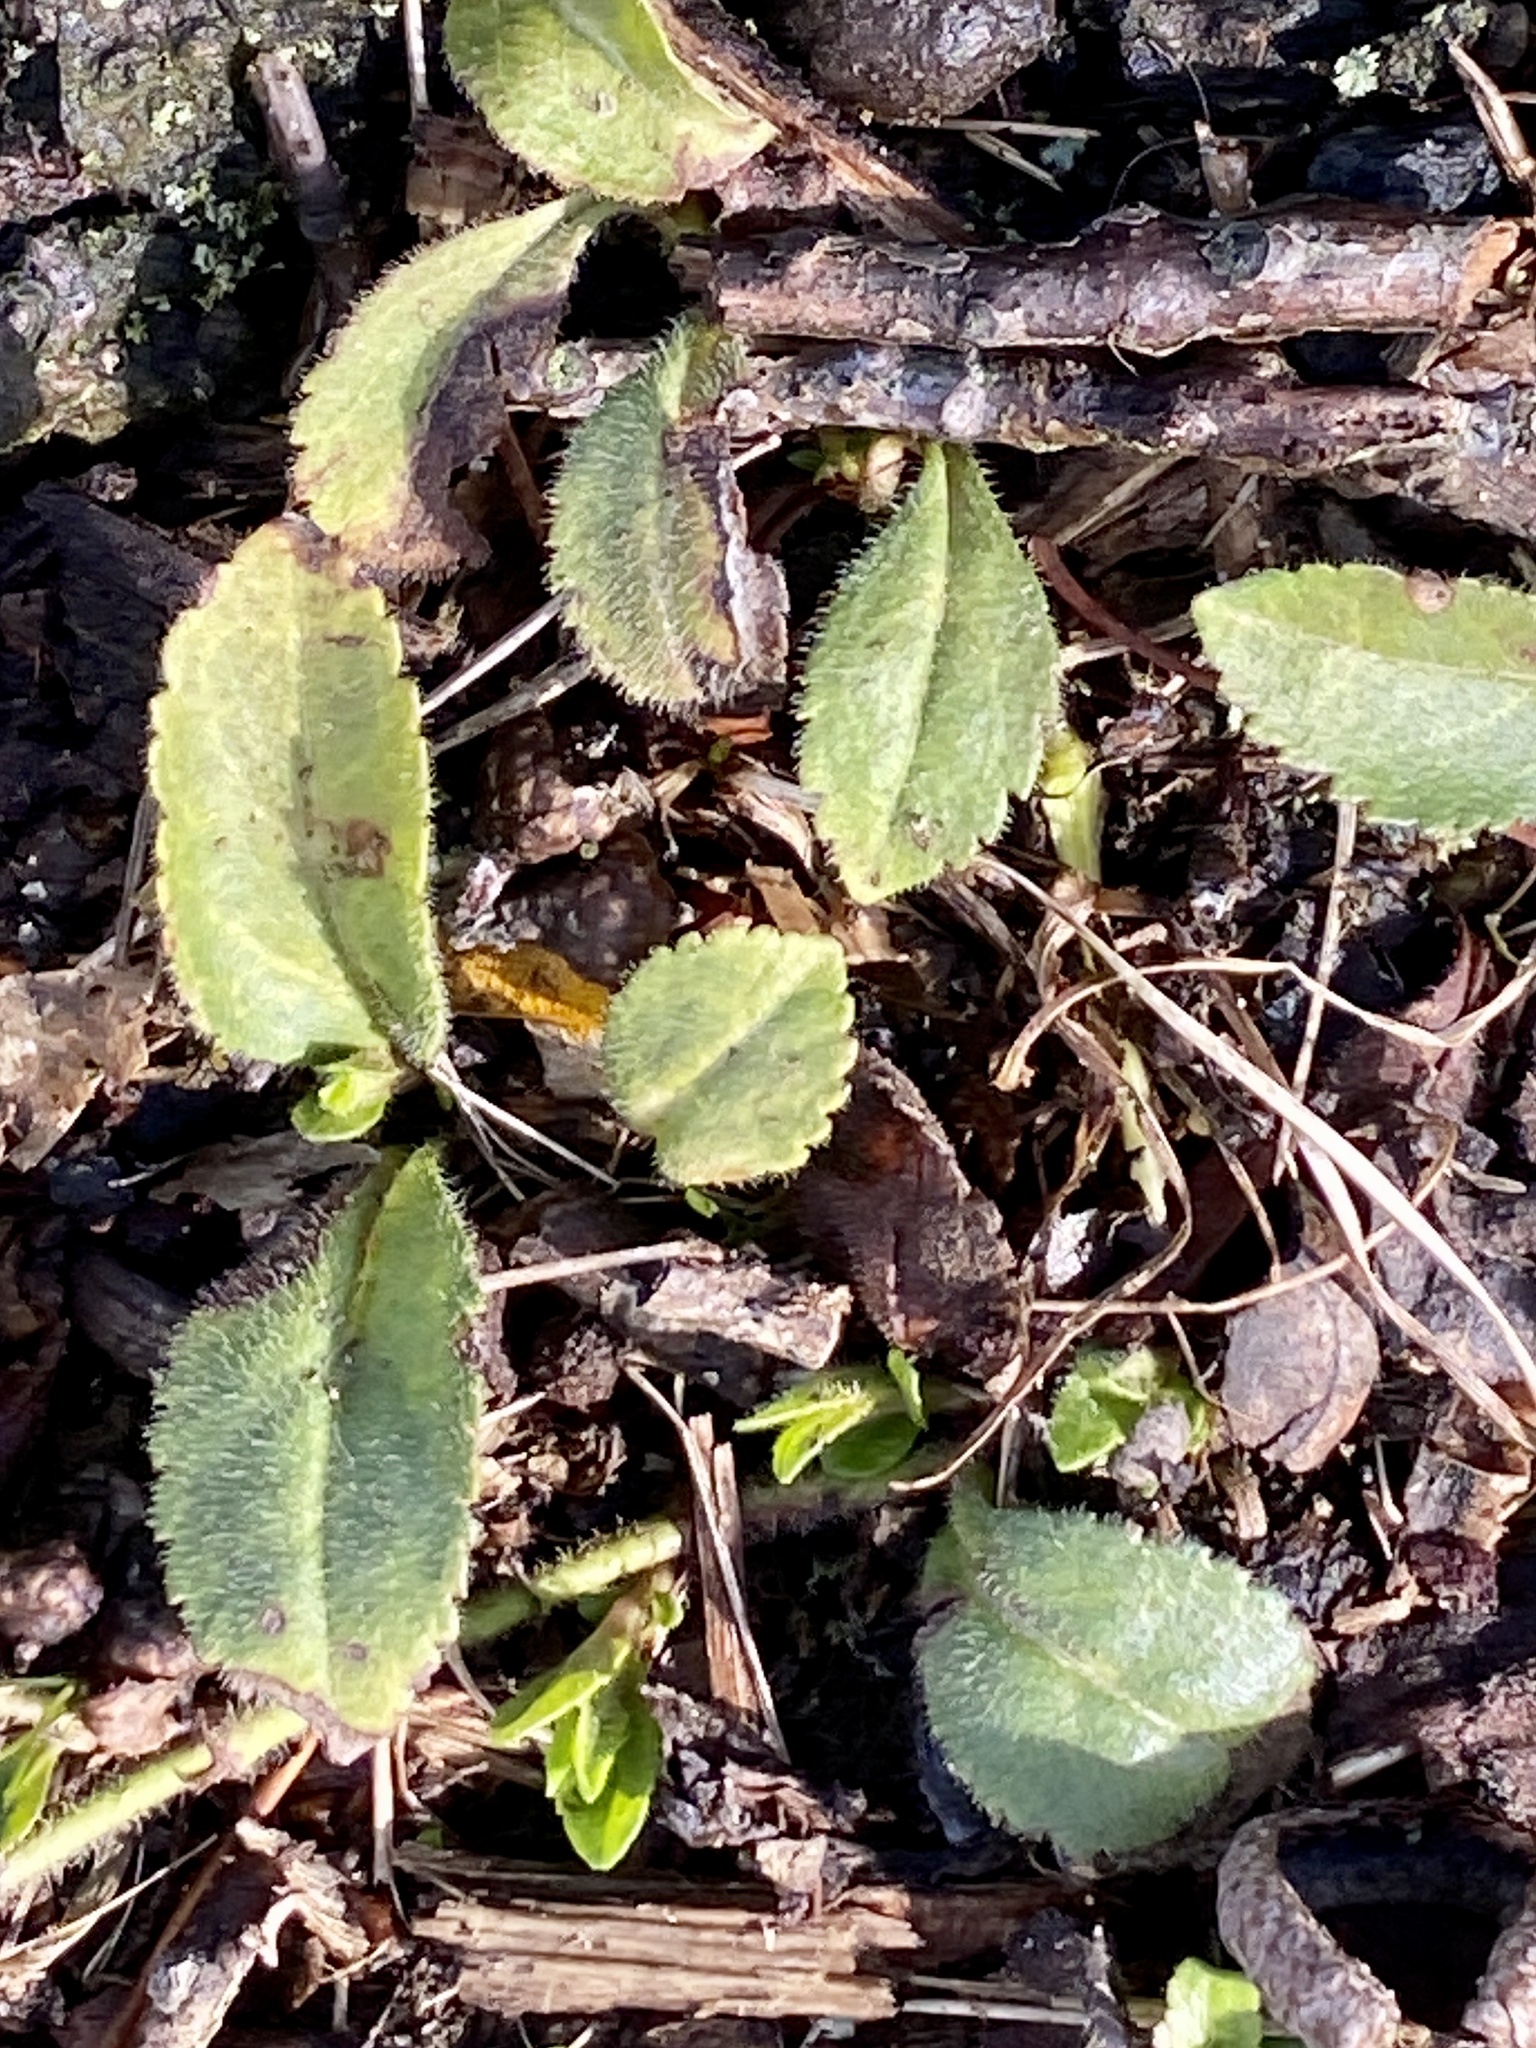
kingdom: Plantae
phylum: Tracheophyta
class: Magnoliopsida
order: Lamiales
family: Plantaginaceae
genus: Veronica
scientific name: Veronica officinalis
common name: Common speedwell
